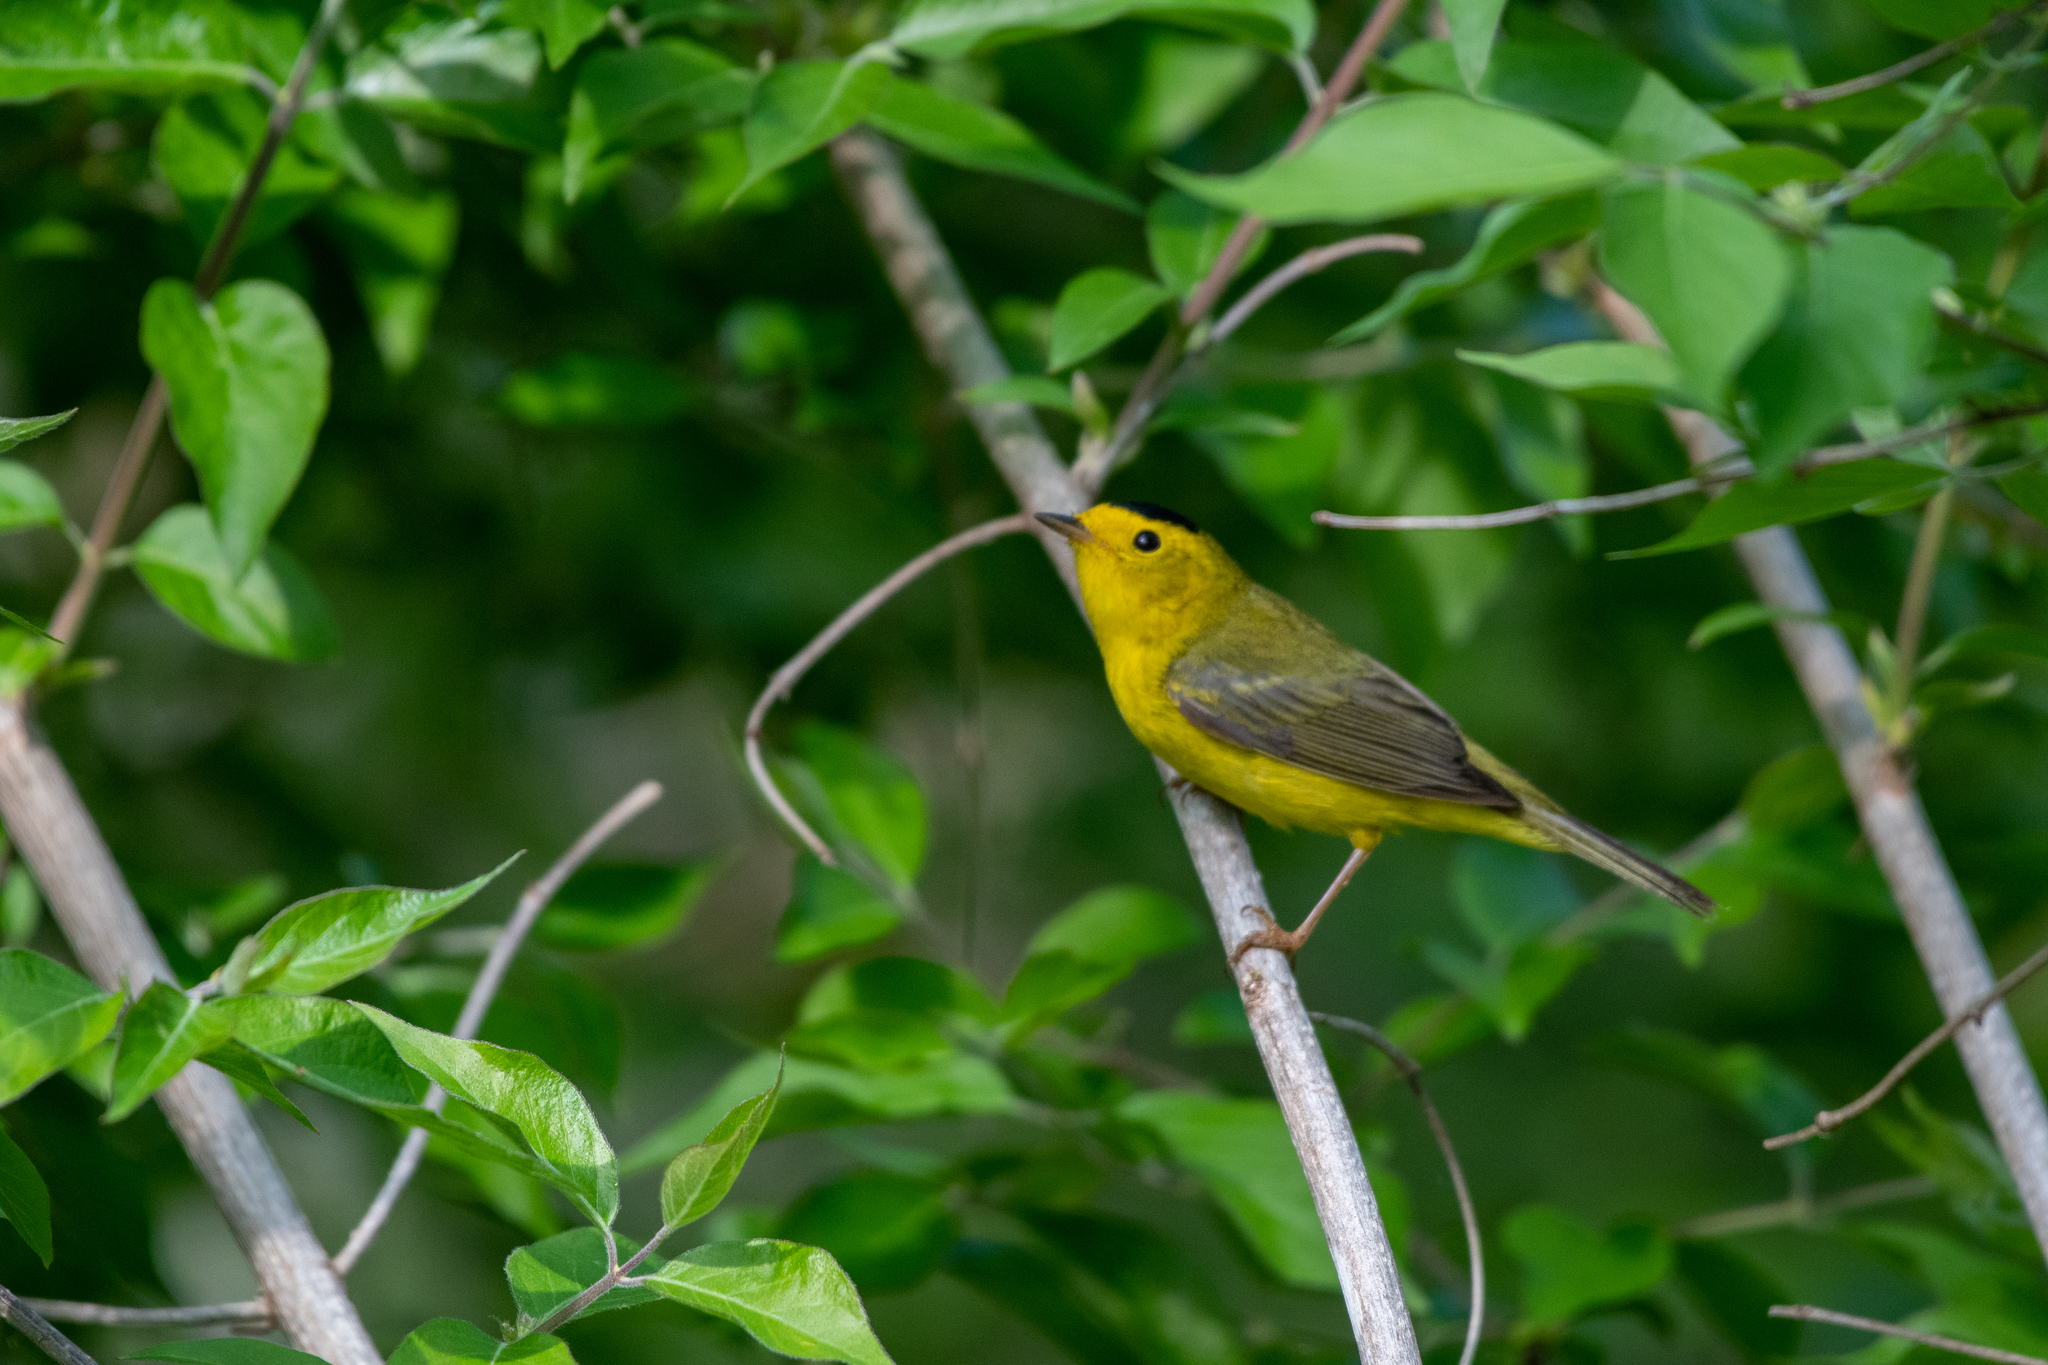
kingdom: Animalia
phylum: Chordata
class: Aves
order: Passeriformes
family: Parulidae
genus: Cardellina
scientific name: Cardellina pusilla
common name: Wilson's warbler
